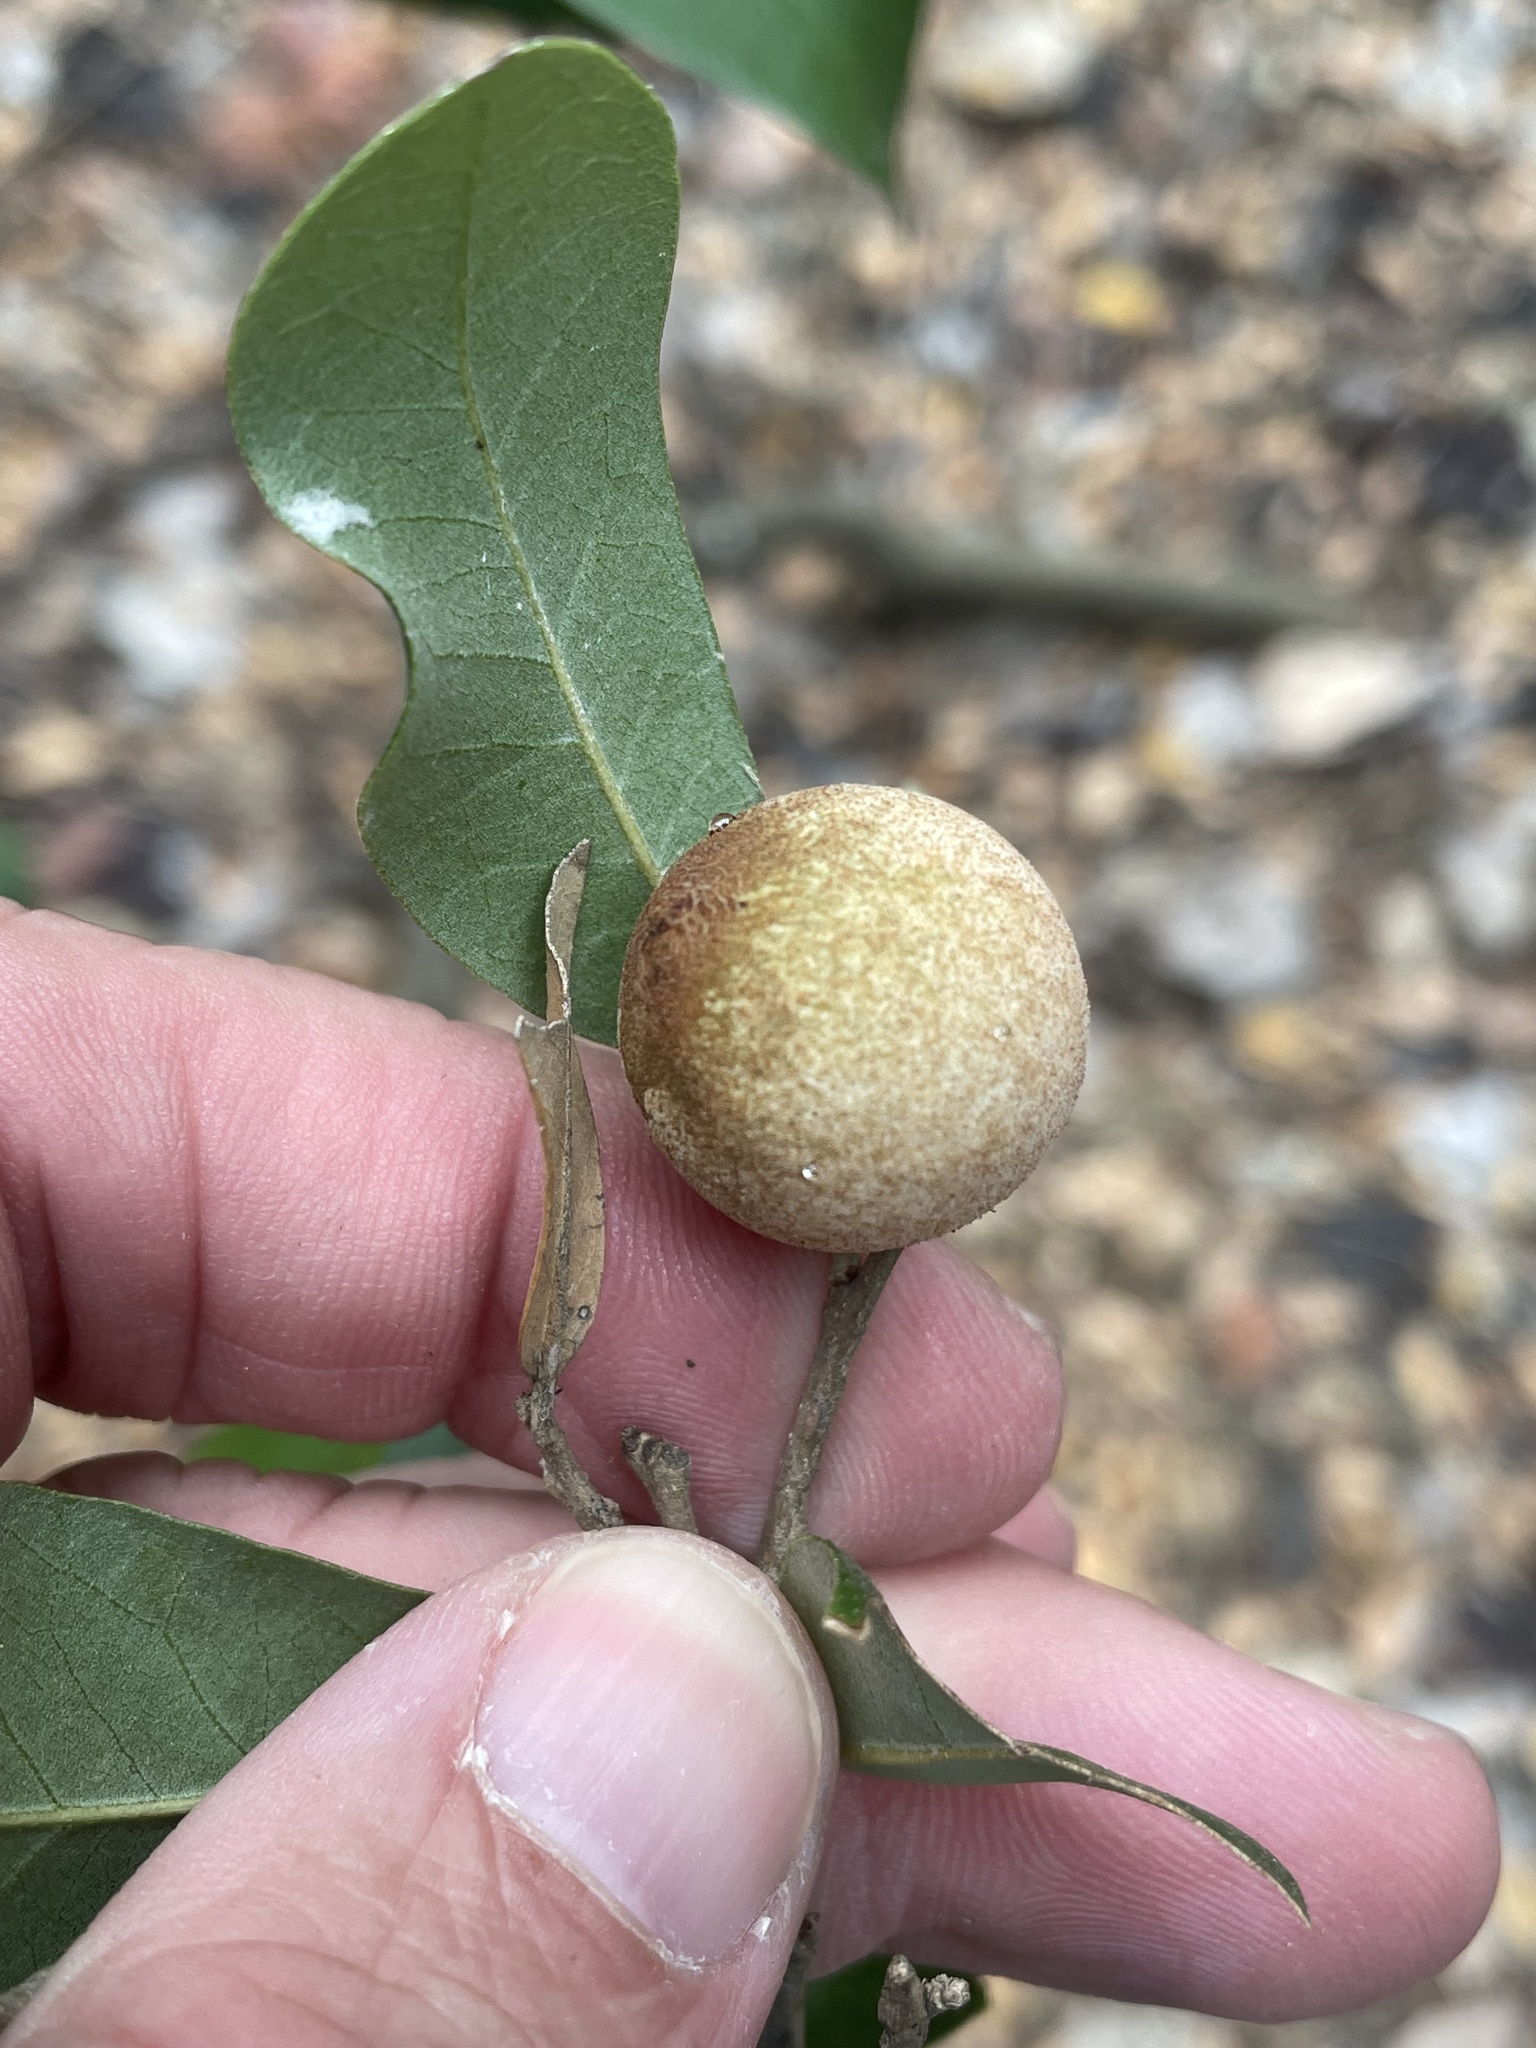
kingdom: Animalia
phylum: Arthropoda
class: Insecta
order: Hymenoptera
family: Cynipidae
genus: Disholcaspis
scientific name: Disholcaspis
